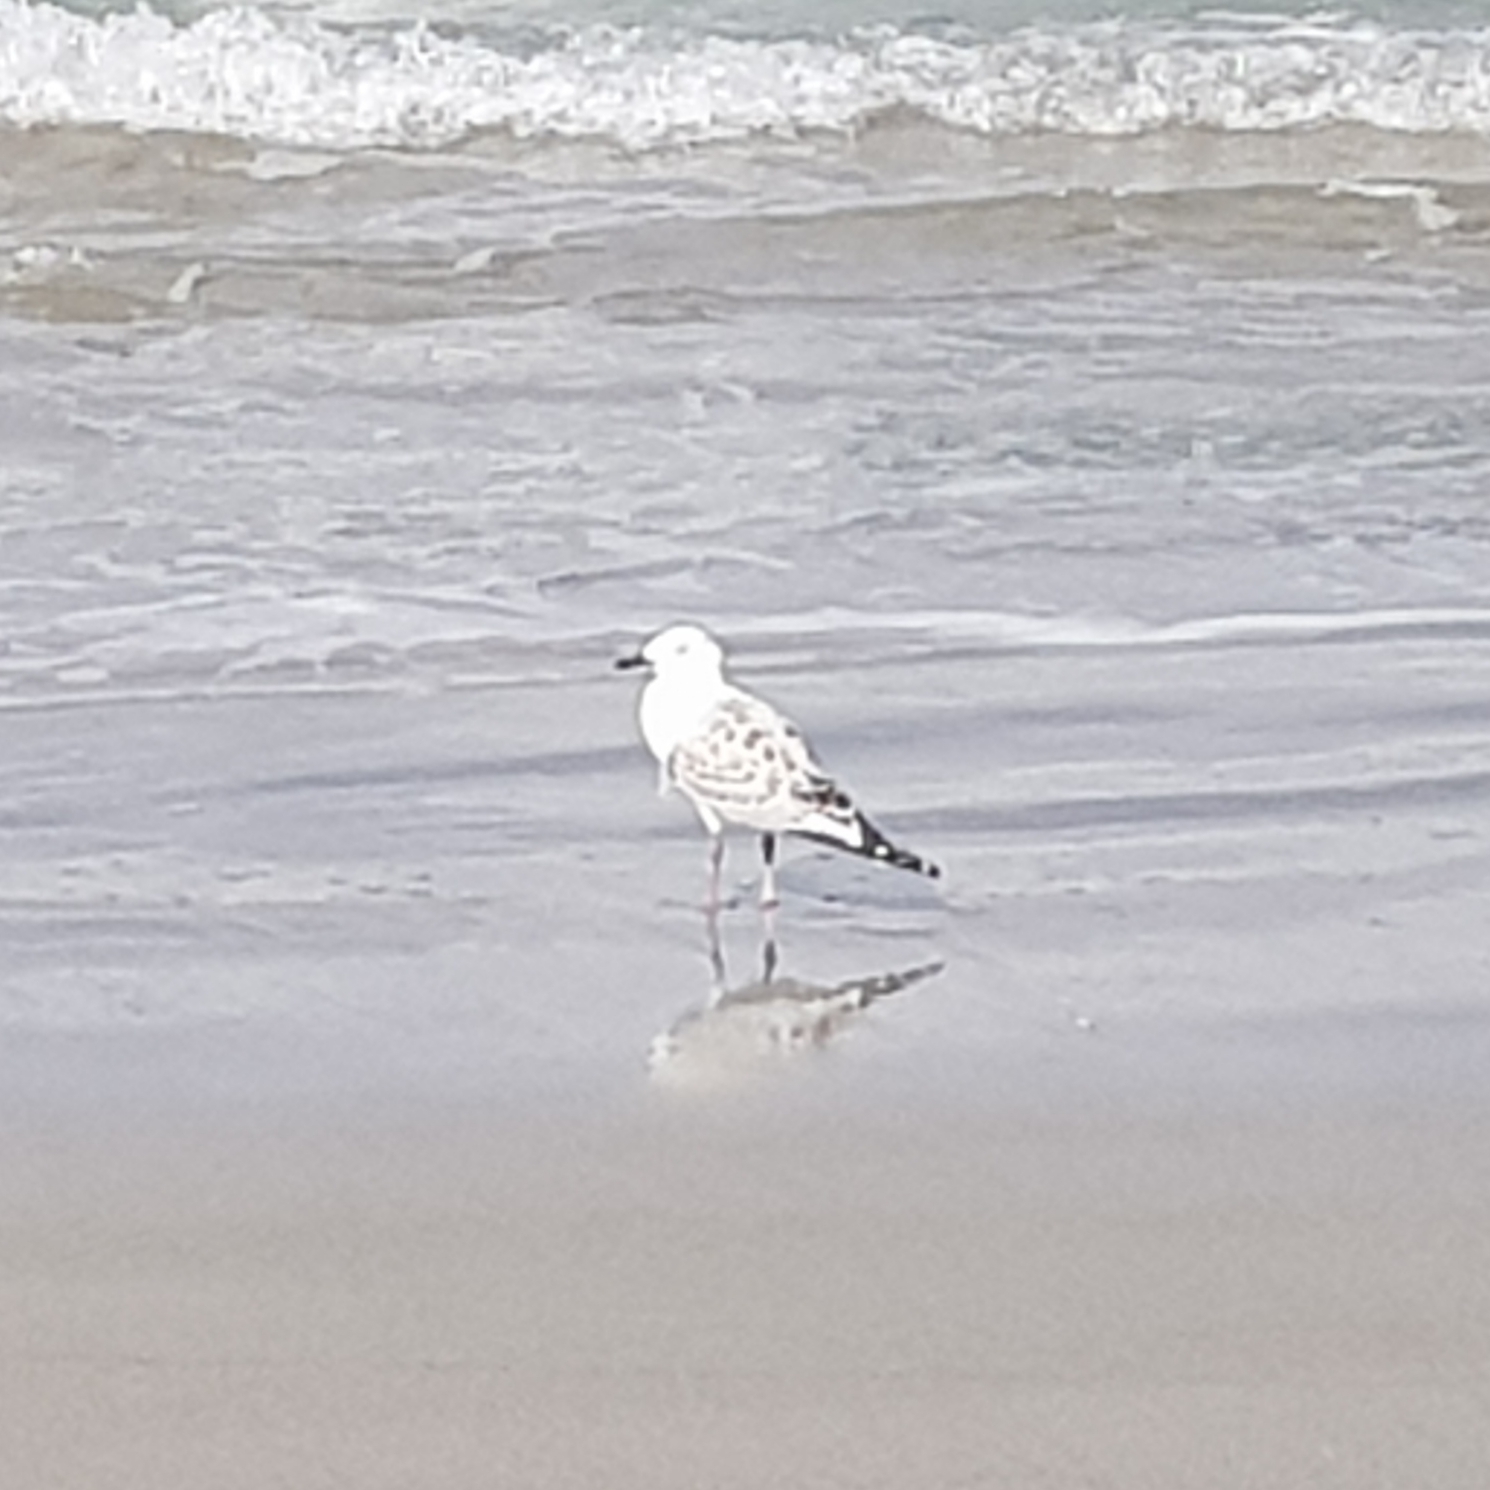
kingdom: Animalia
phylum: Chordata
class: Aves
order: Charadriiformes
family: Laridae
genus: Chroicocephalus
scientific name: Chroicocephalus novaehollandiae
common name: Silver gull
